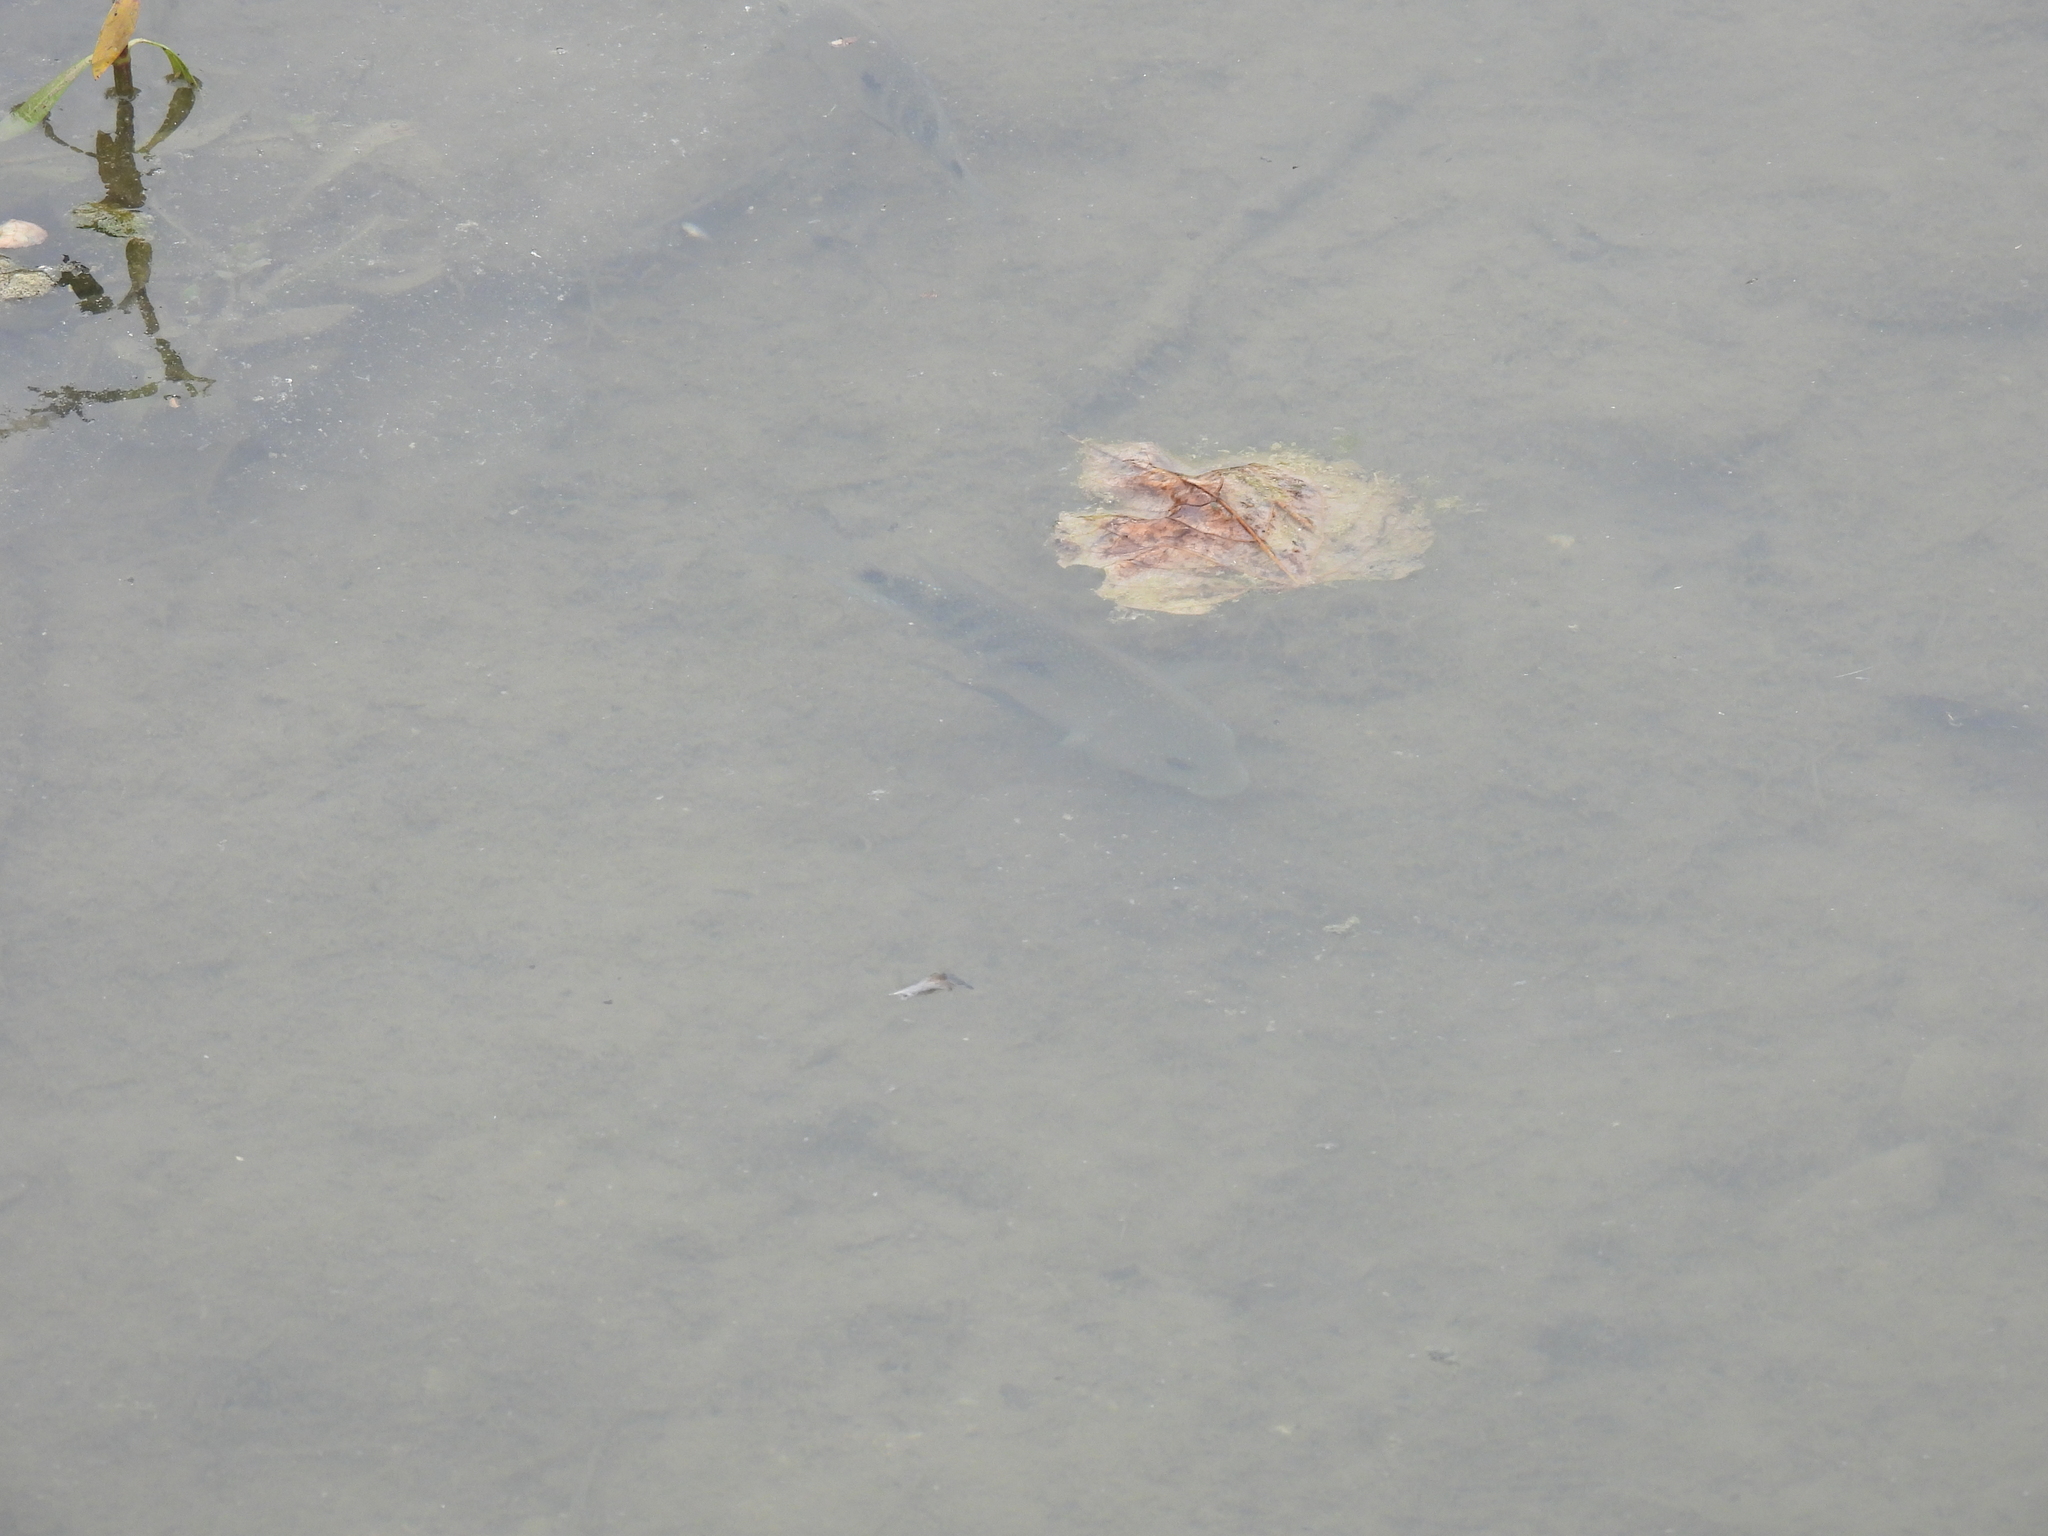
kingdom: Animalia
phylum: Chordata
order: Perciformes
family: Cichlidae
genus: Herichthys
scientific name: Herichthys cyanoguttatus
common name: Rio grande cichlid
